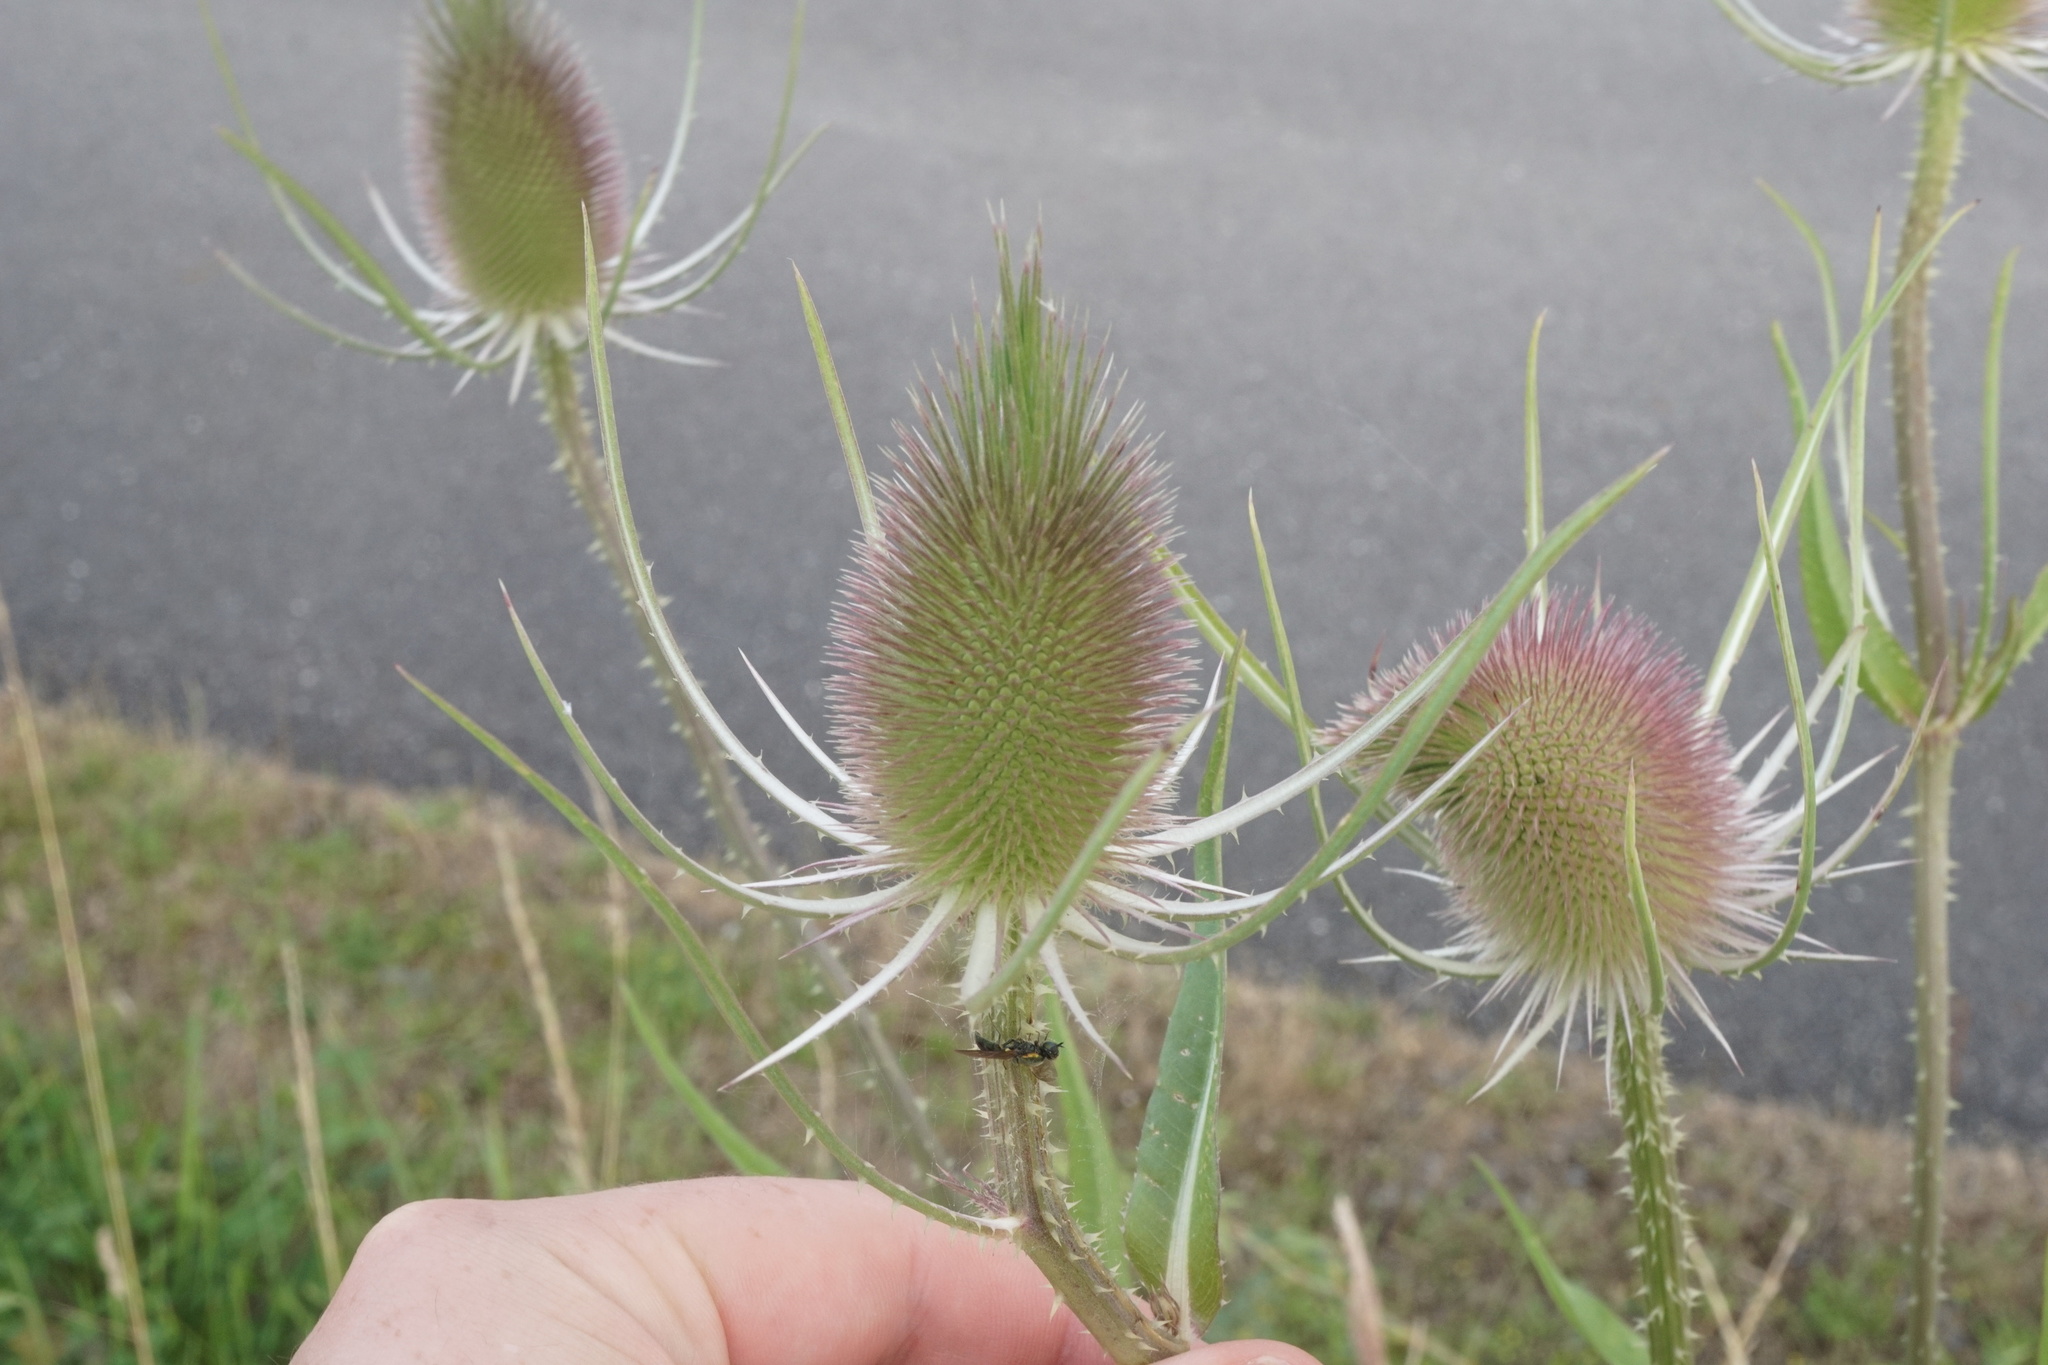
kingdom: Plantae
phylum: Tracheophyta
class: Magnoliopsida
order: Dipsacales
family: Caprifoliaceae
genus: Dipsacus
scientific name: Dipsacus fullonum
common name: Teasel
